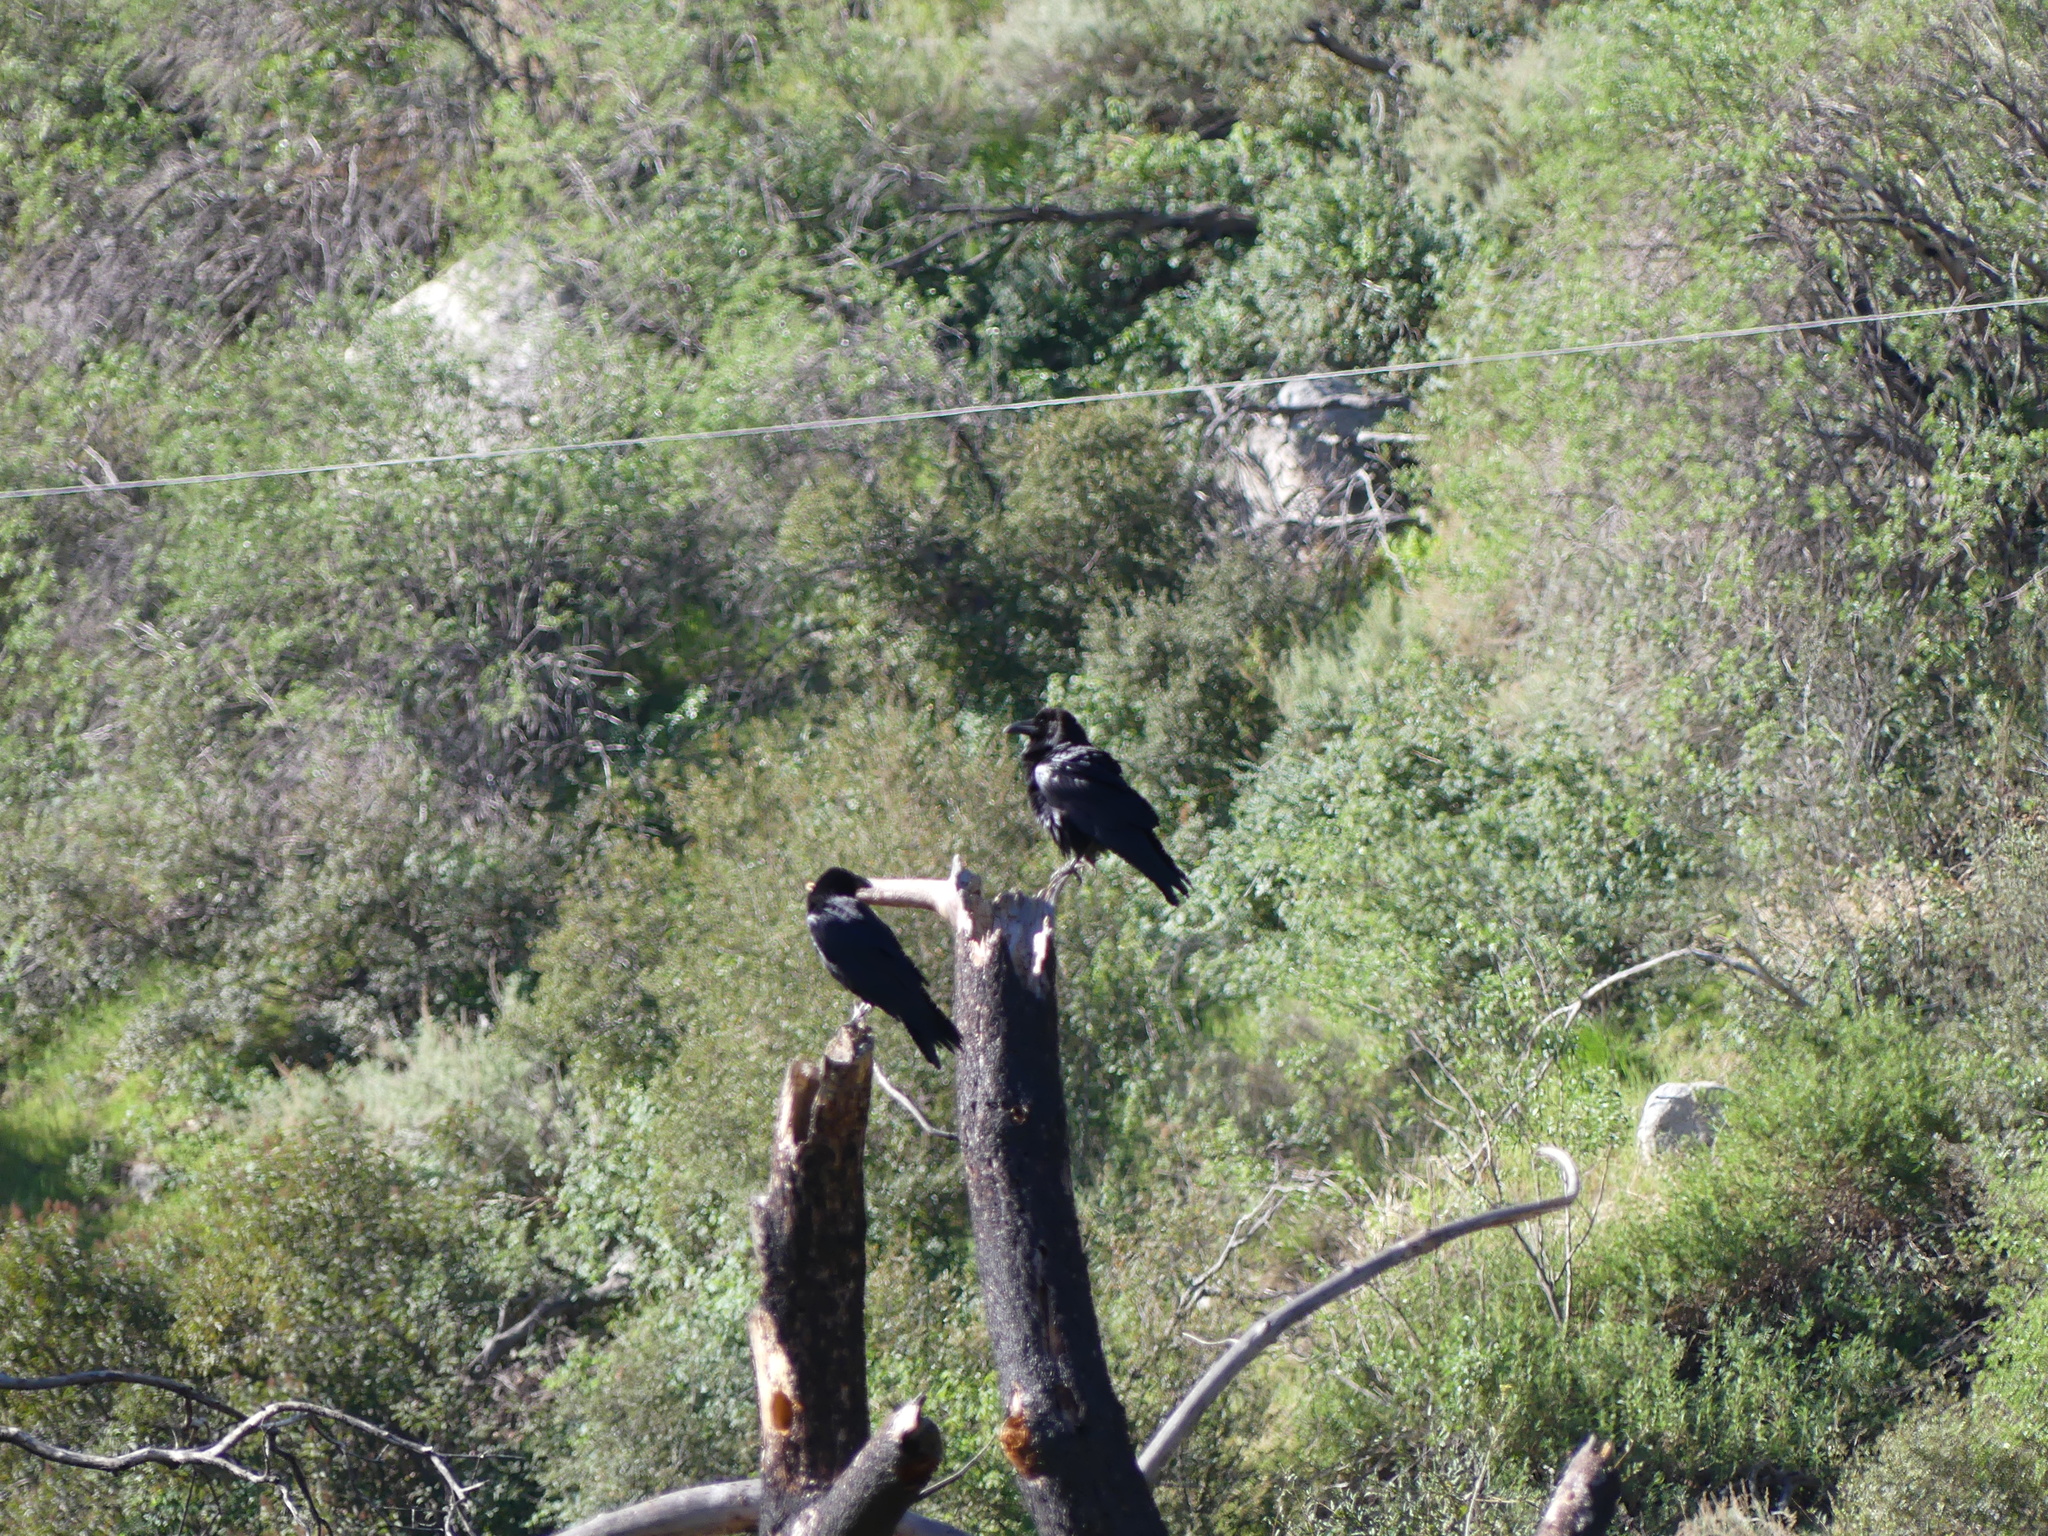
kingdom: Animalia
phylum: Chordata
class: Aves
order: Passeriformes
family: Corvidae
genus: Corvus
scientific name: Corvus corax
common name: Common raven
